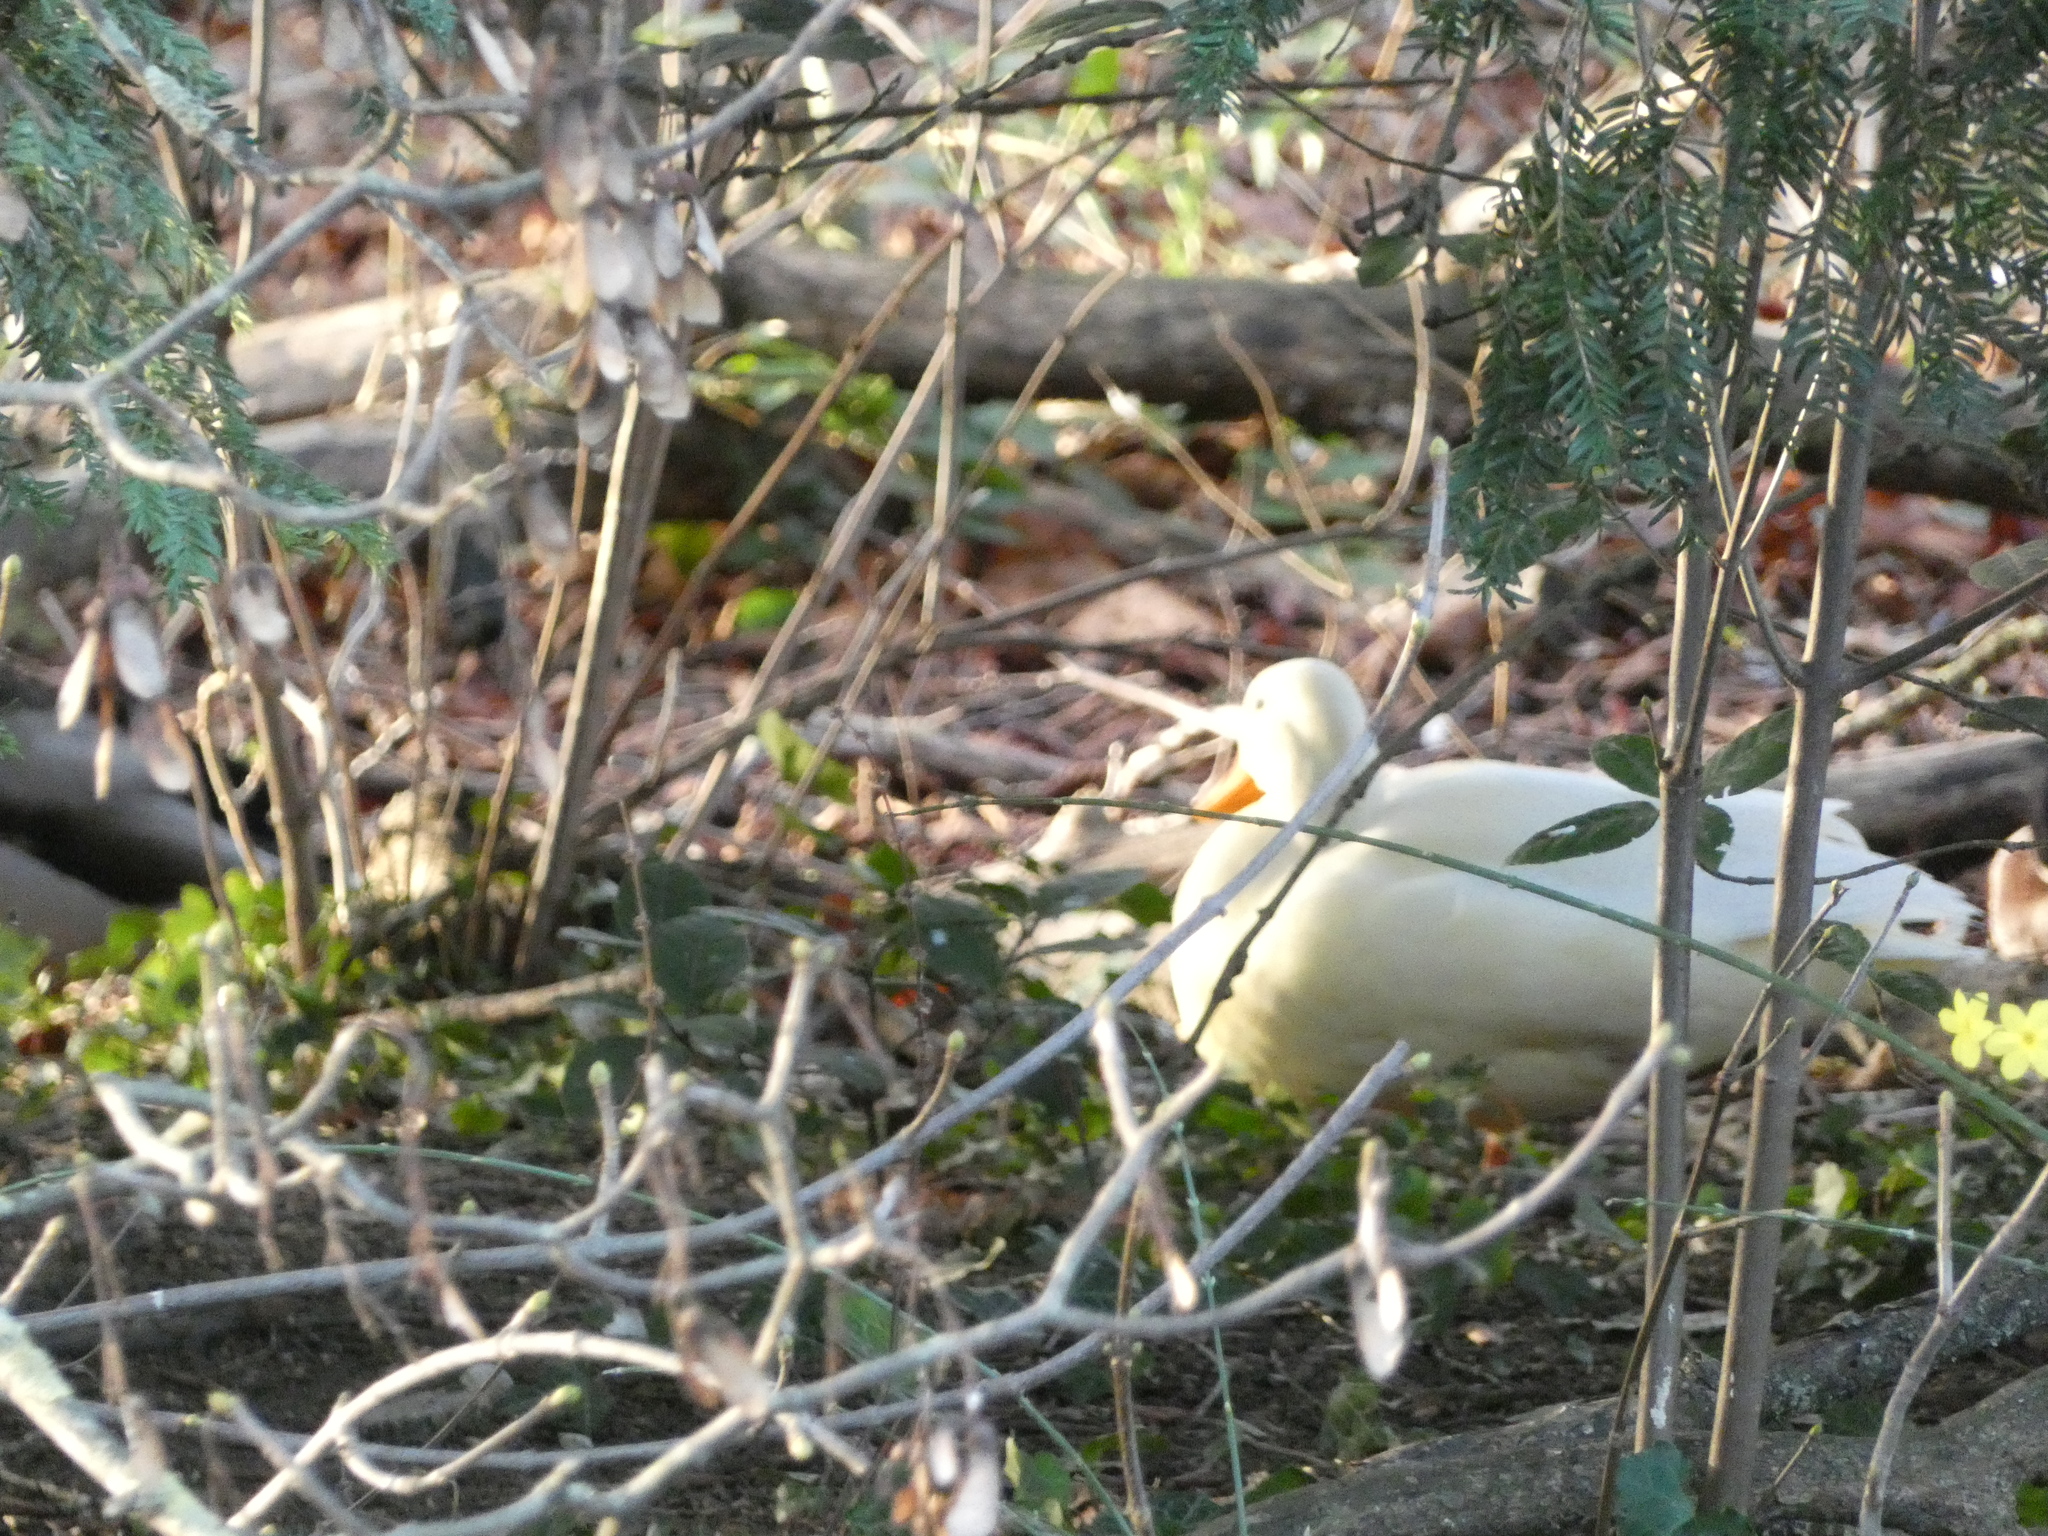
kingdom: Animalia
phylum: Chordata
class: Aves
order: Anseriformes
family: Anatidae
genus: Anas
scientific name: Anas platyrhynchos
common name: Mallard
